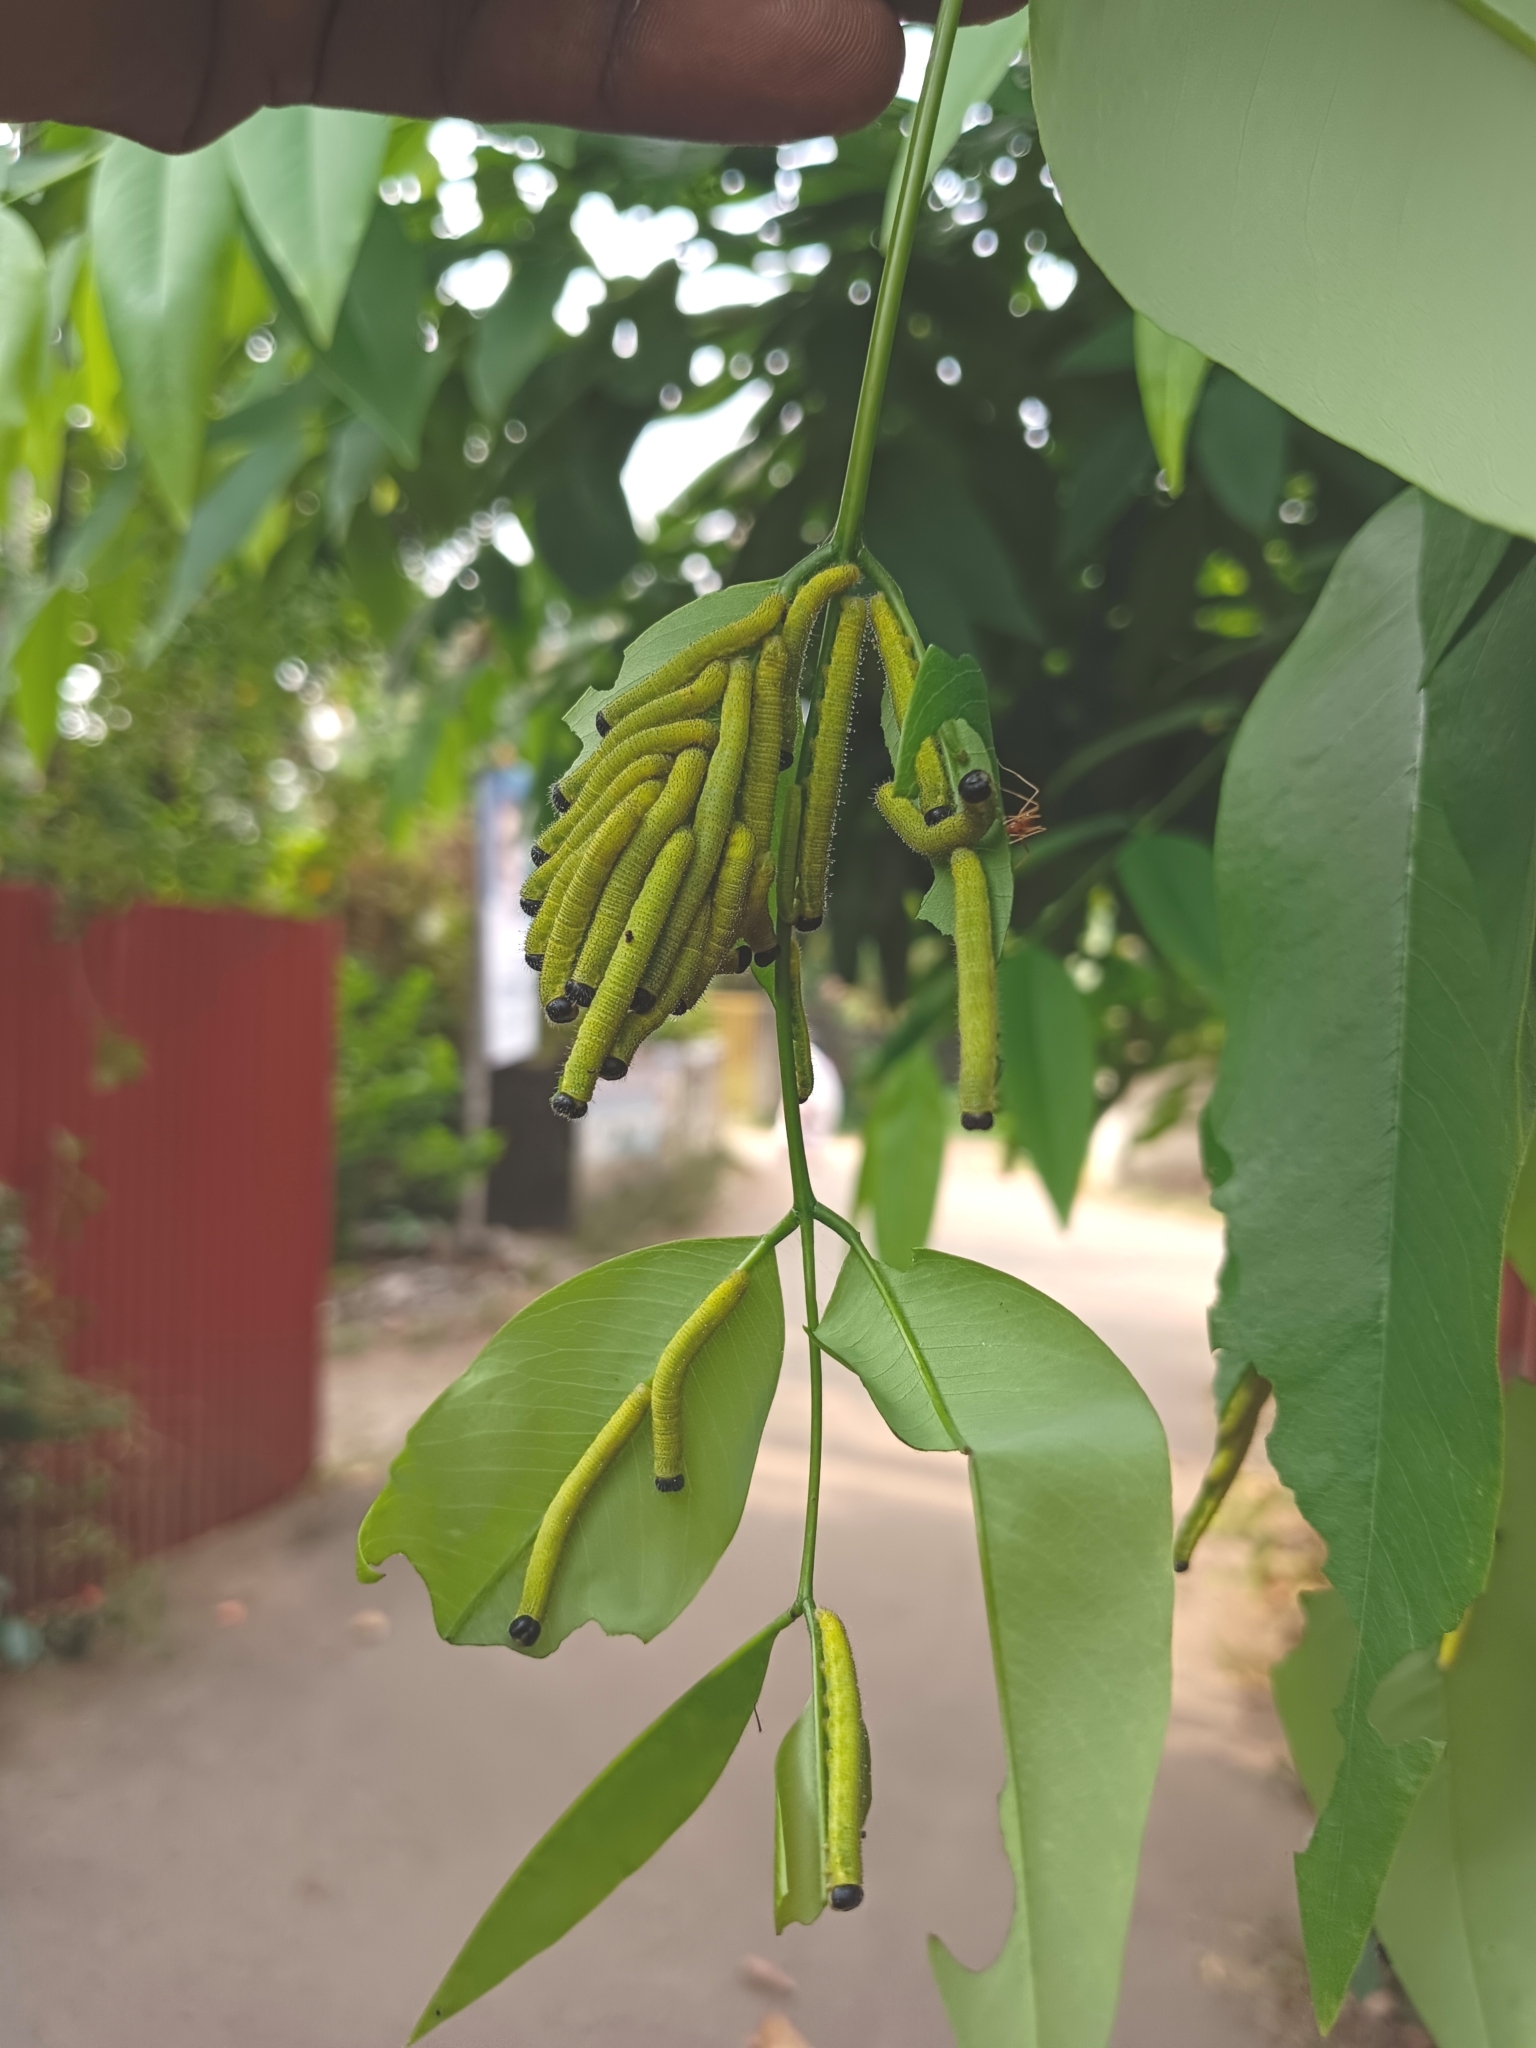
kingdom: Animalia
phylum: Arthropoda
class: Insecta
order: Lepidoptera
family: Pieridae
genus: Eurema
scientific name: Eurema blanda
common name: Three-spot grass yellow
